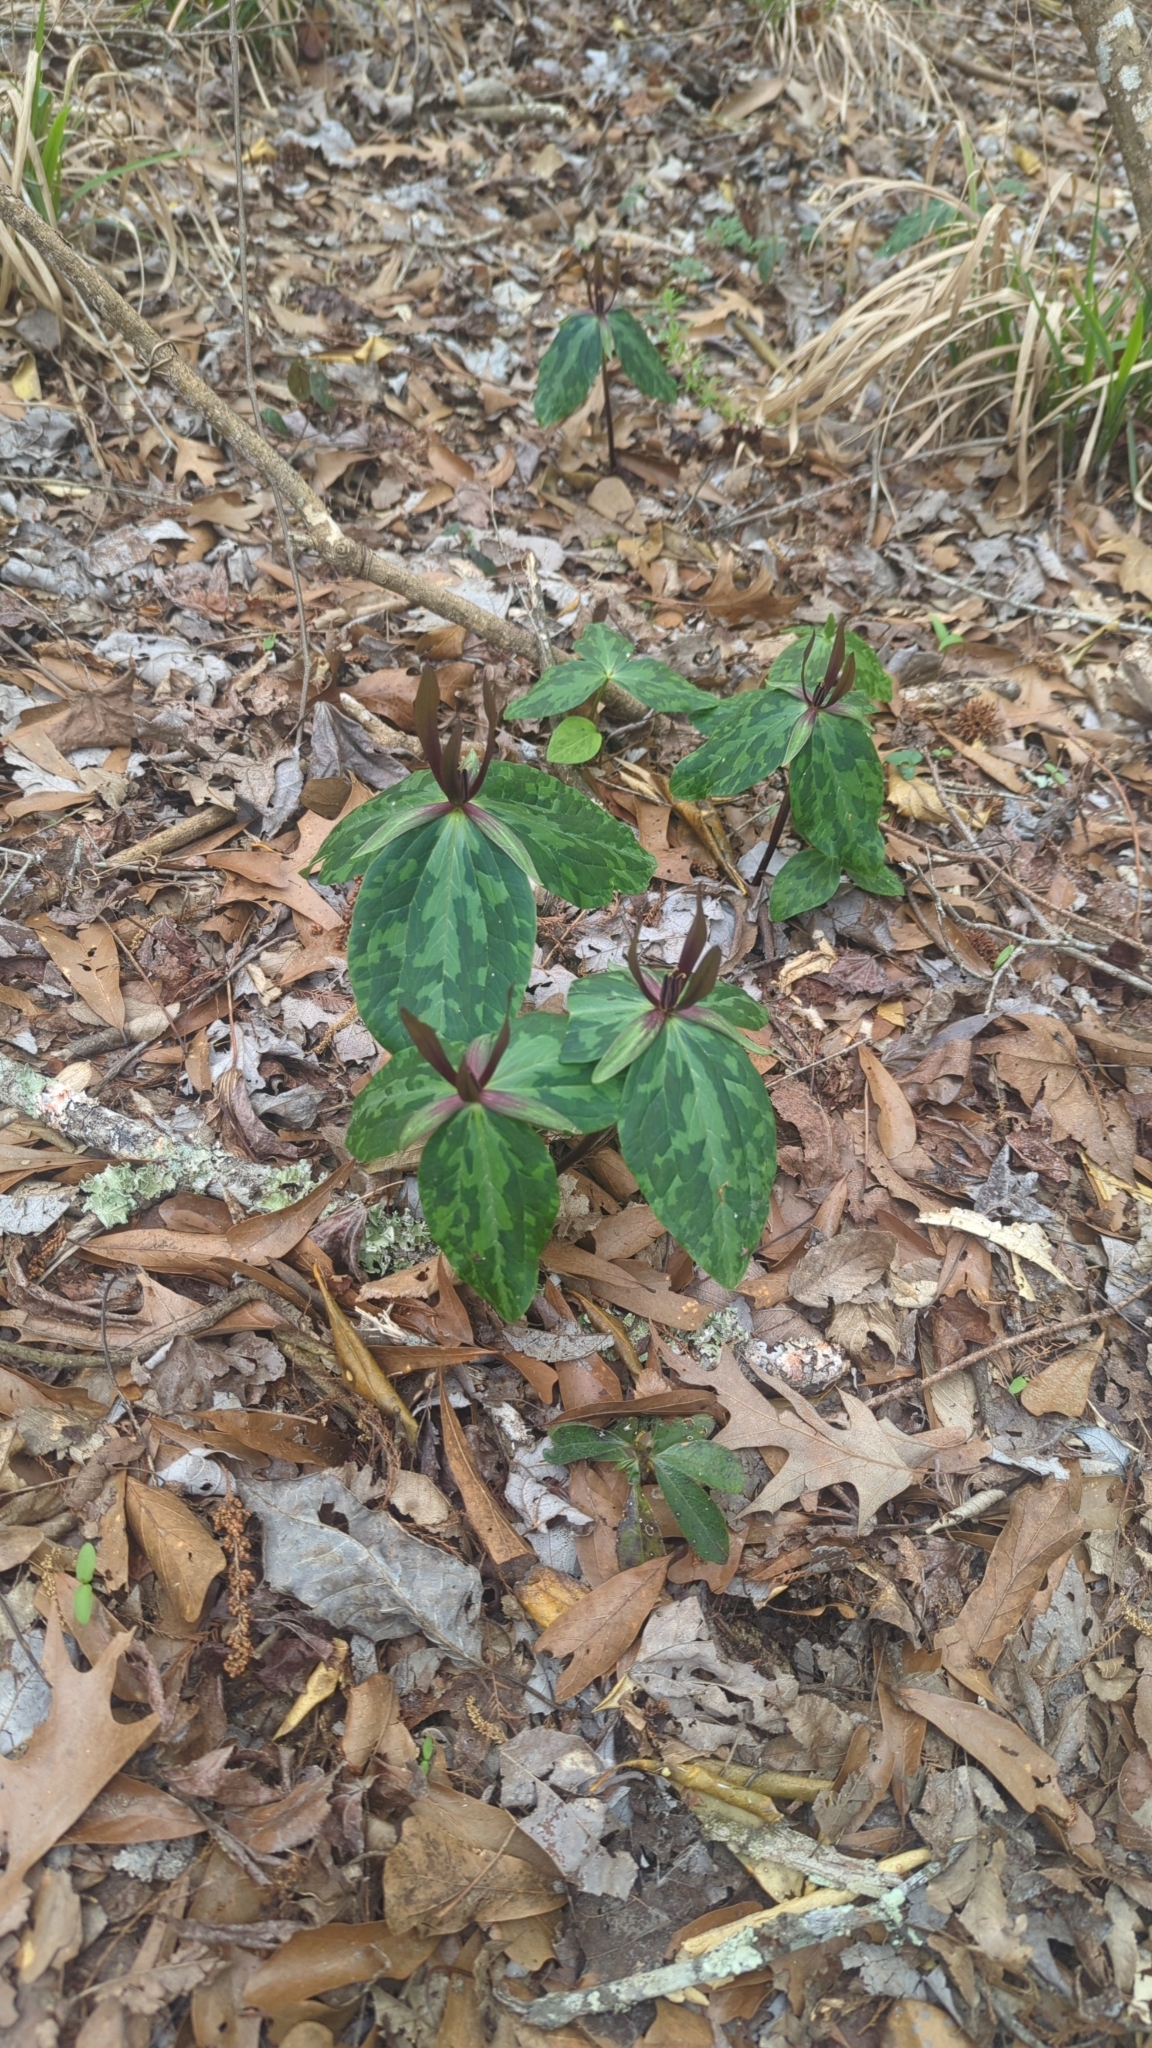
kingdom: Plantae
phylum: Tracheophyta
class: Liliopsida
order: Liliales
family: Melanthiaceae
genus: Trillium
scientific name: Trillium ludovicianum
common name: Louisiana toadshade
